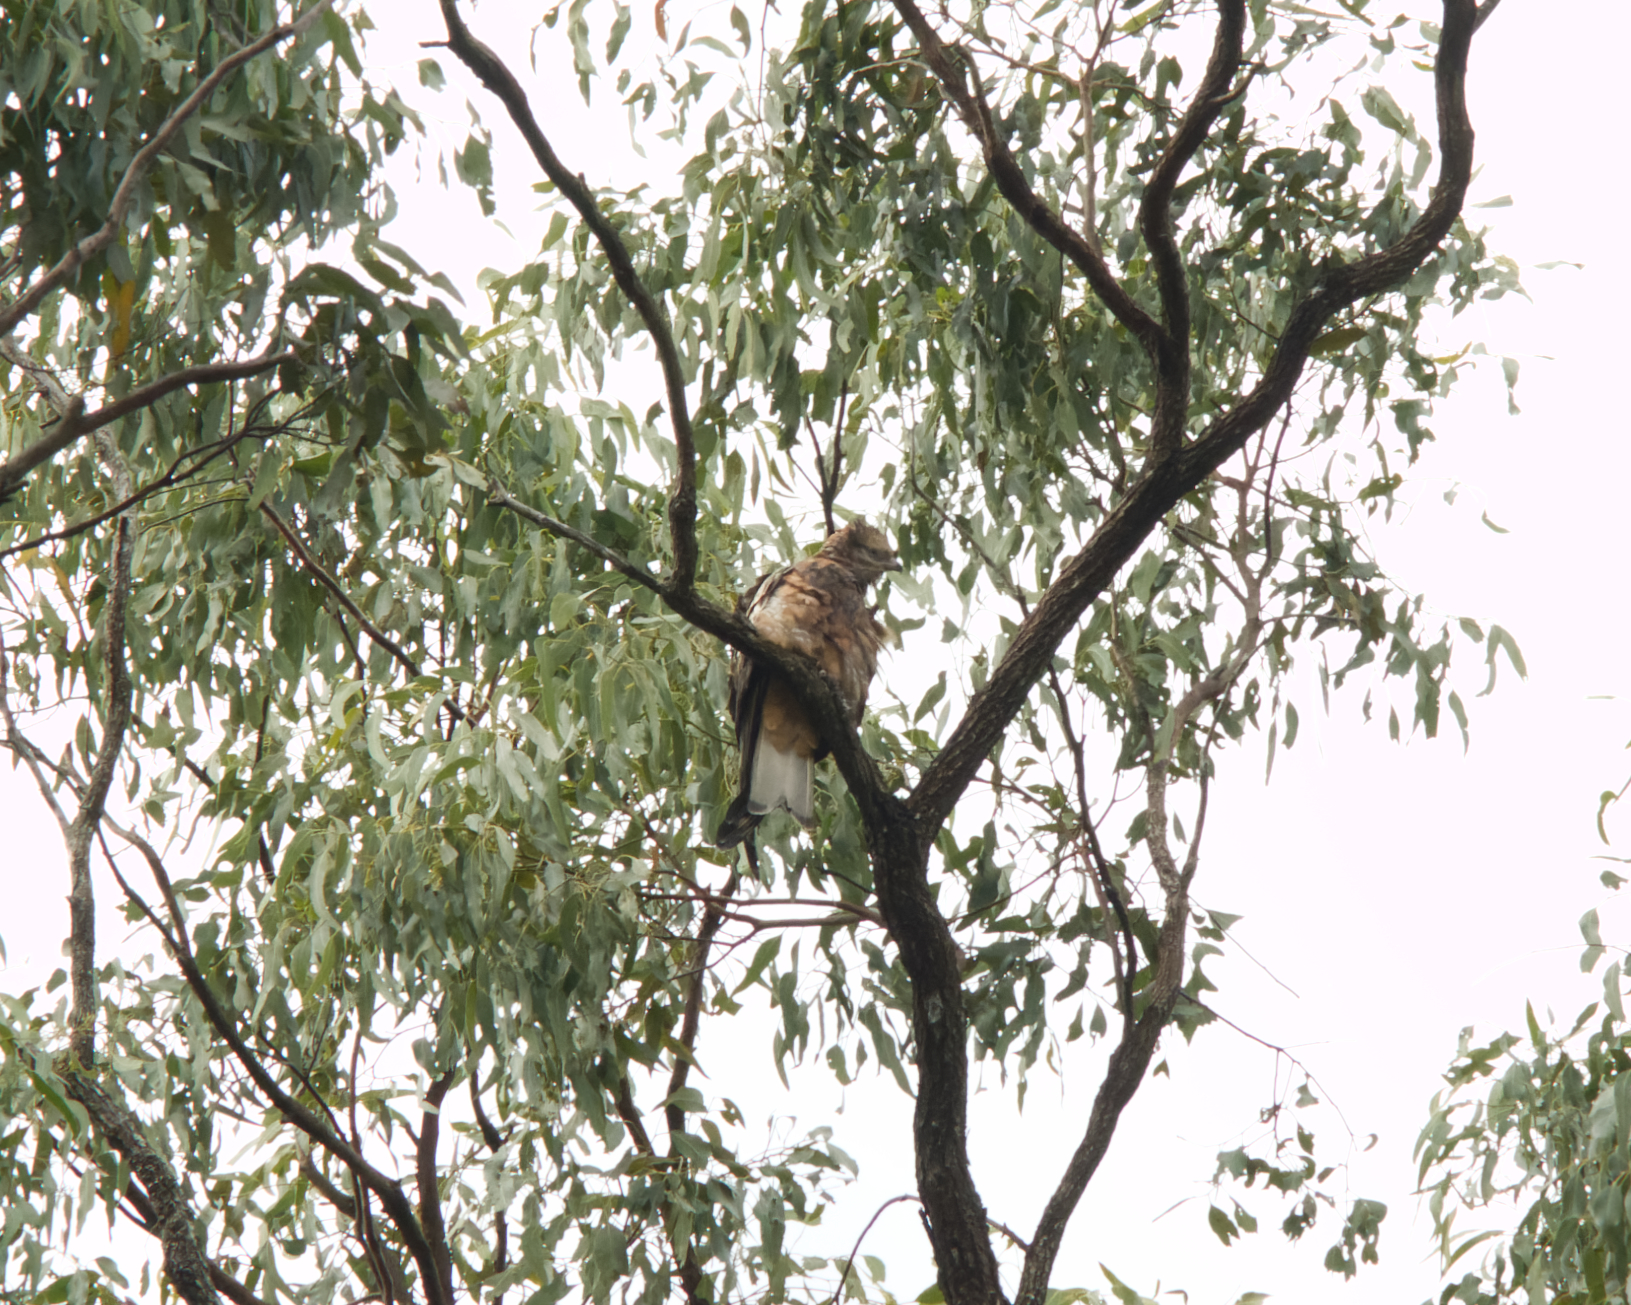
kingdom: Animalia
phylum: Chordata
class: Aves
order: Accipitriformes
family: Accipitridae
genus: Lophoictinia
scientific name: Lophoictinia isura
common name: Square-tailed kite
